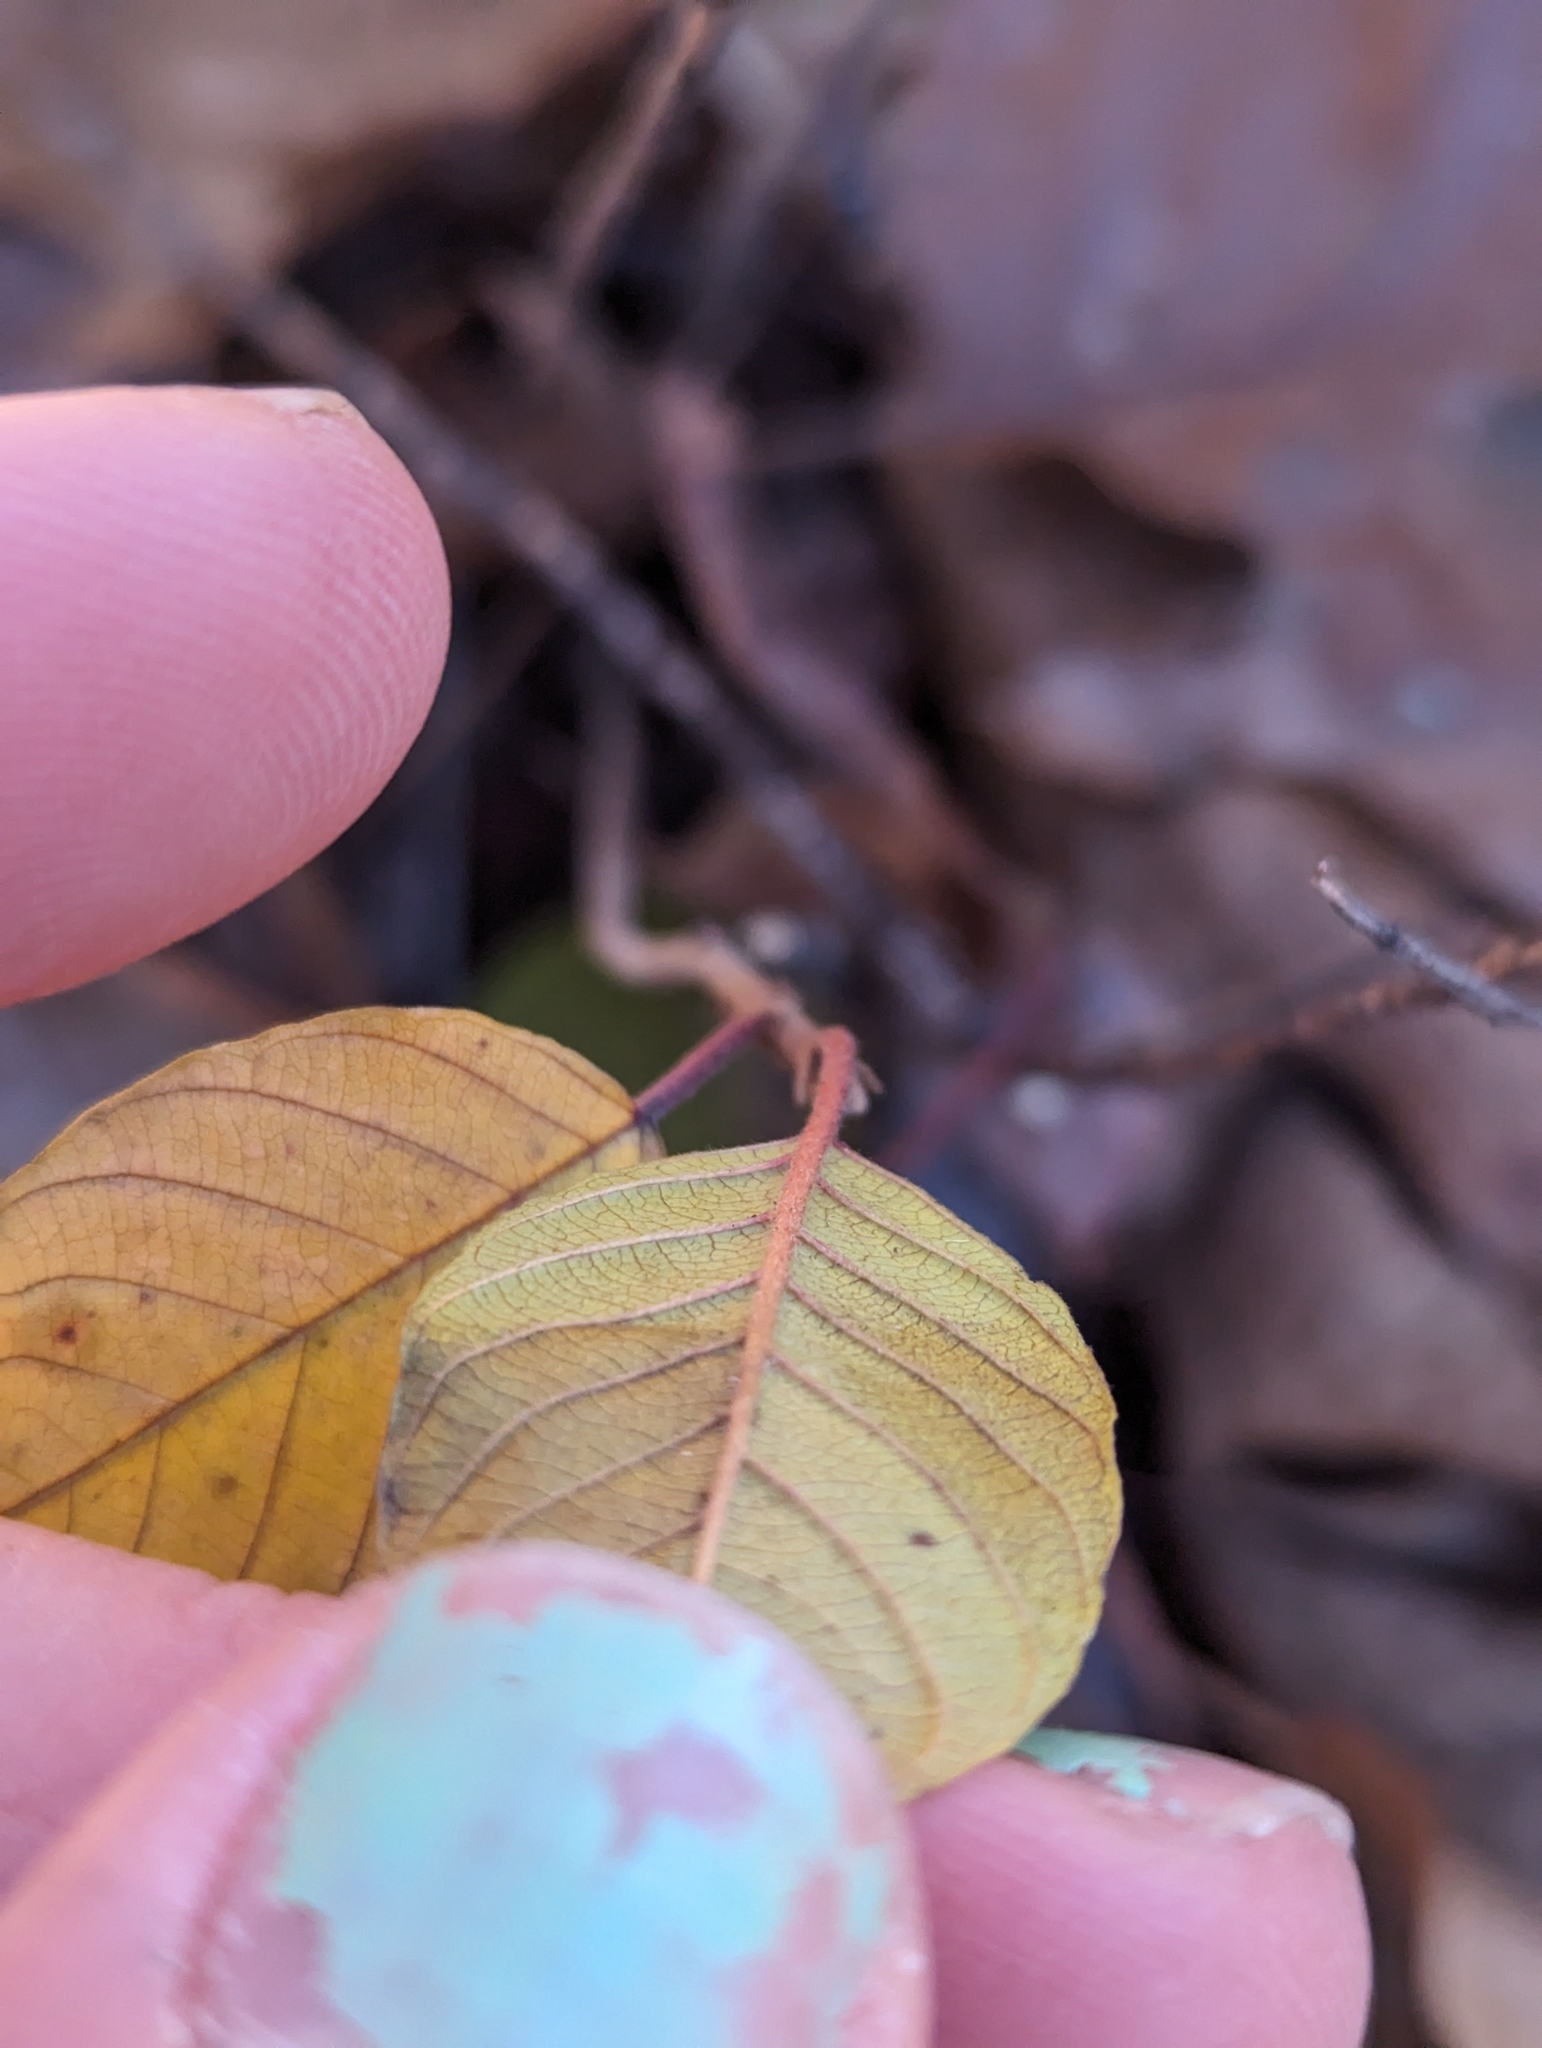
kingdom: Plantae
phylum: Tracheophyta
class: Magnoliopsida
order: Rosales
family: Rhamnaceae
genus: Frangula
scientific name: Frangula alnus
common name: Alder buckthorn
